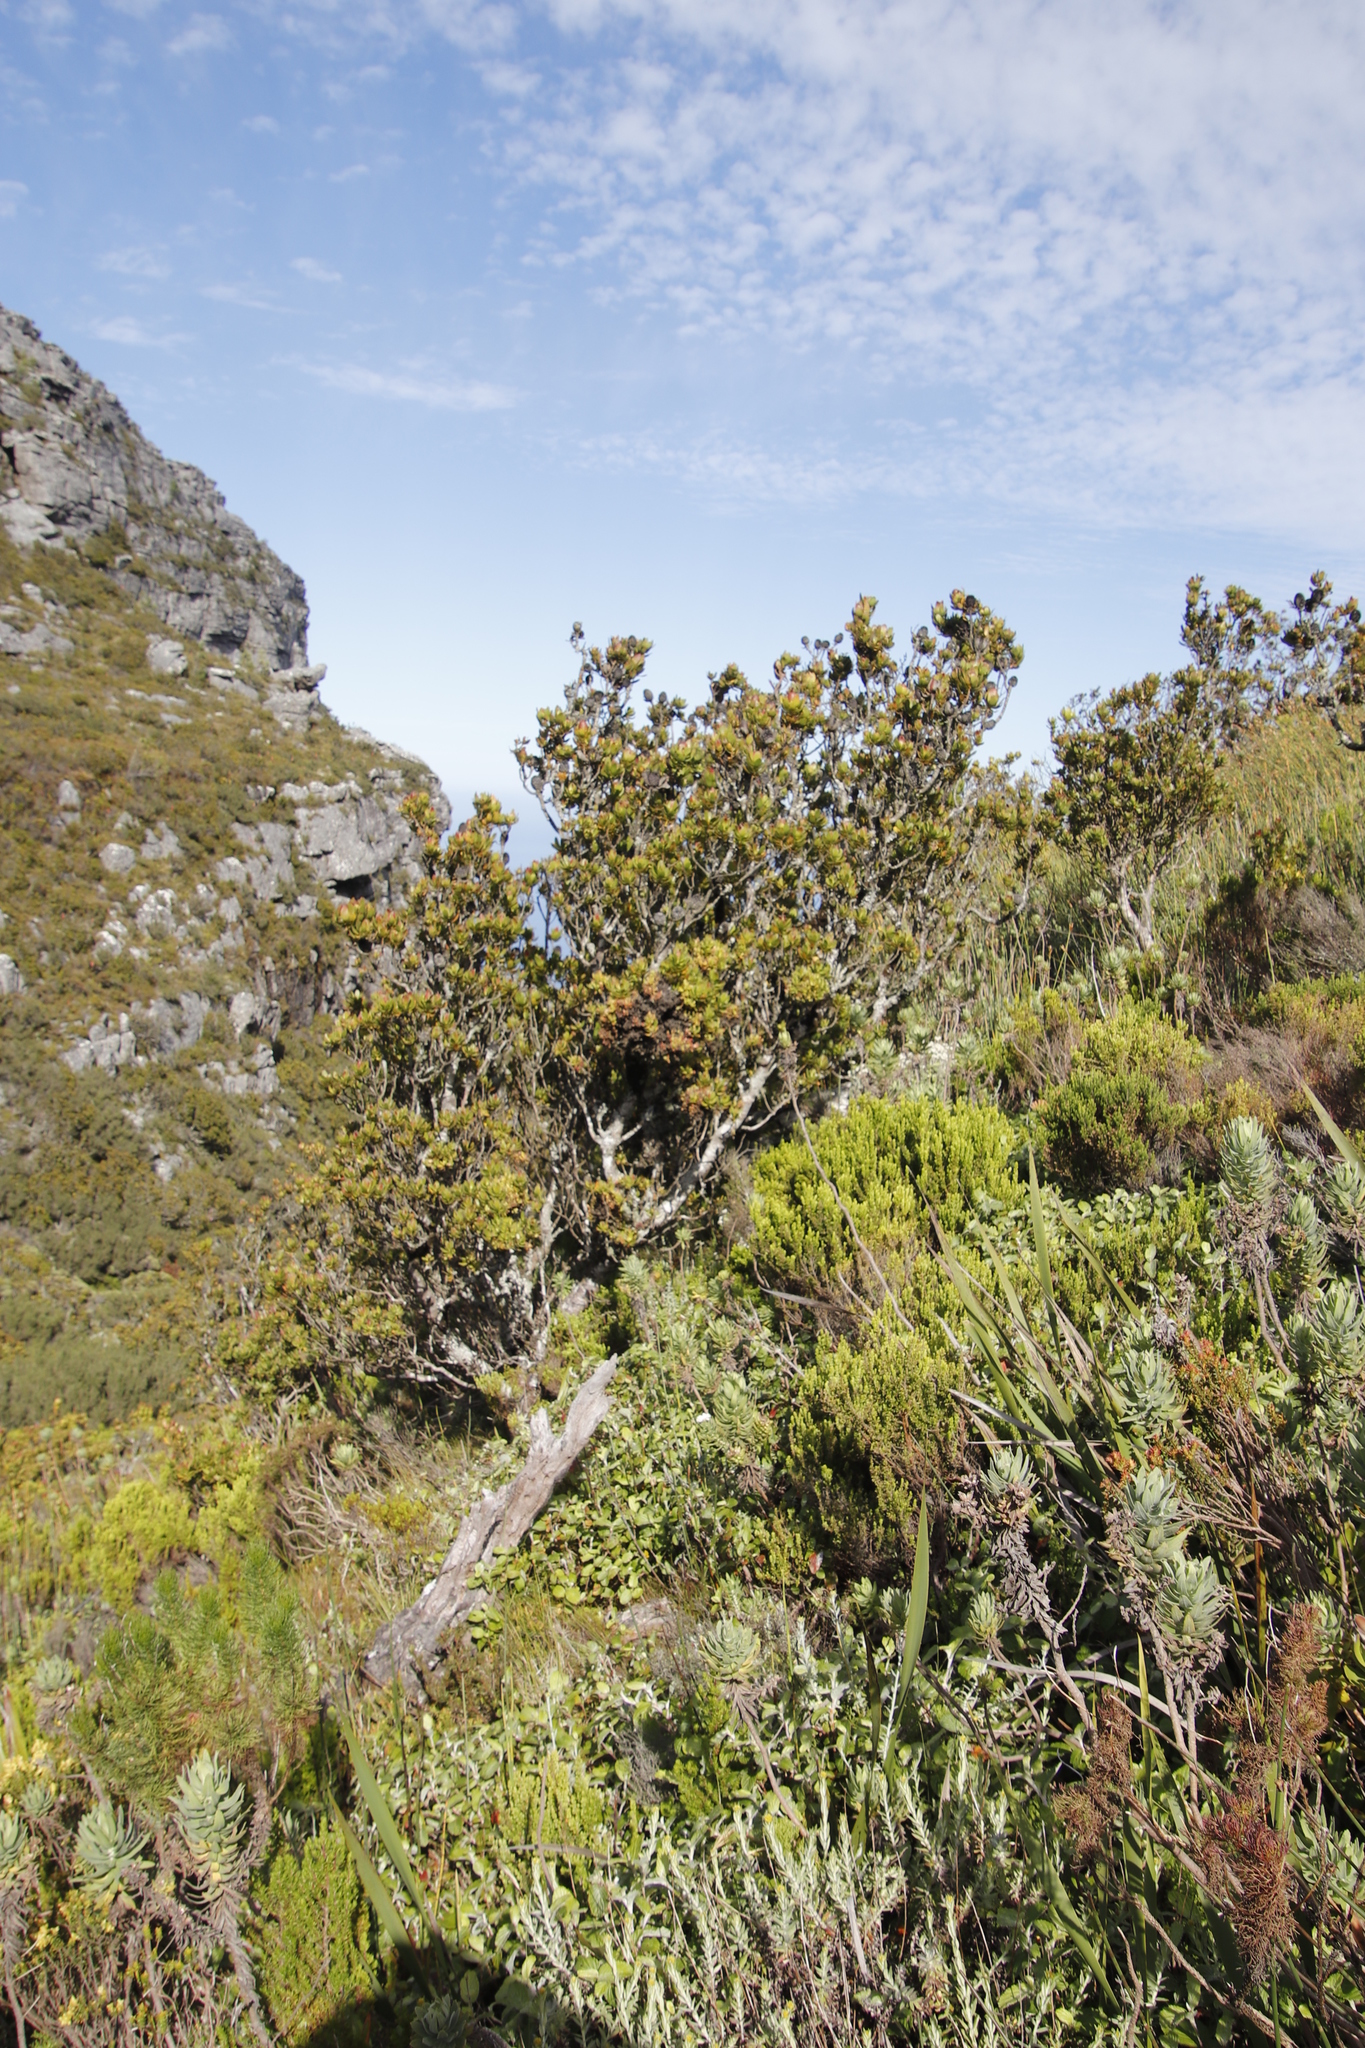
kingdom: Plantae
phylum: Tracheophyta
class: Magnoliopsida
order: Proteales
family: Proteaceae
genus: Leucadendron
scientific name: Leucadendron strobilinum
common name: Mountain rose
